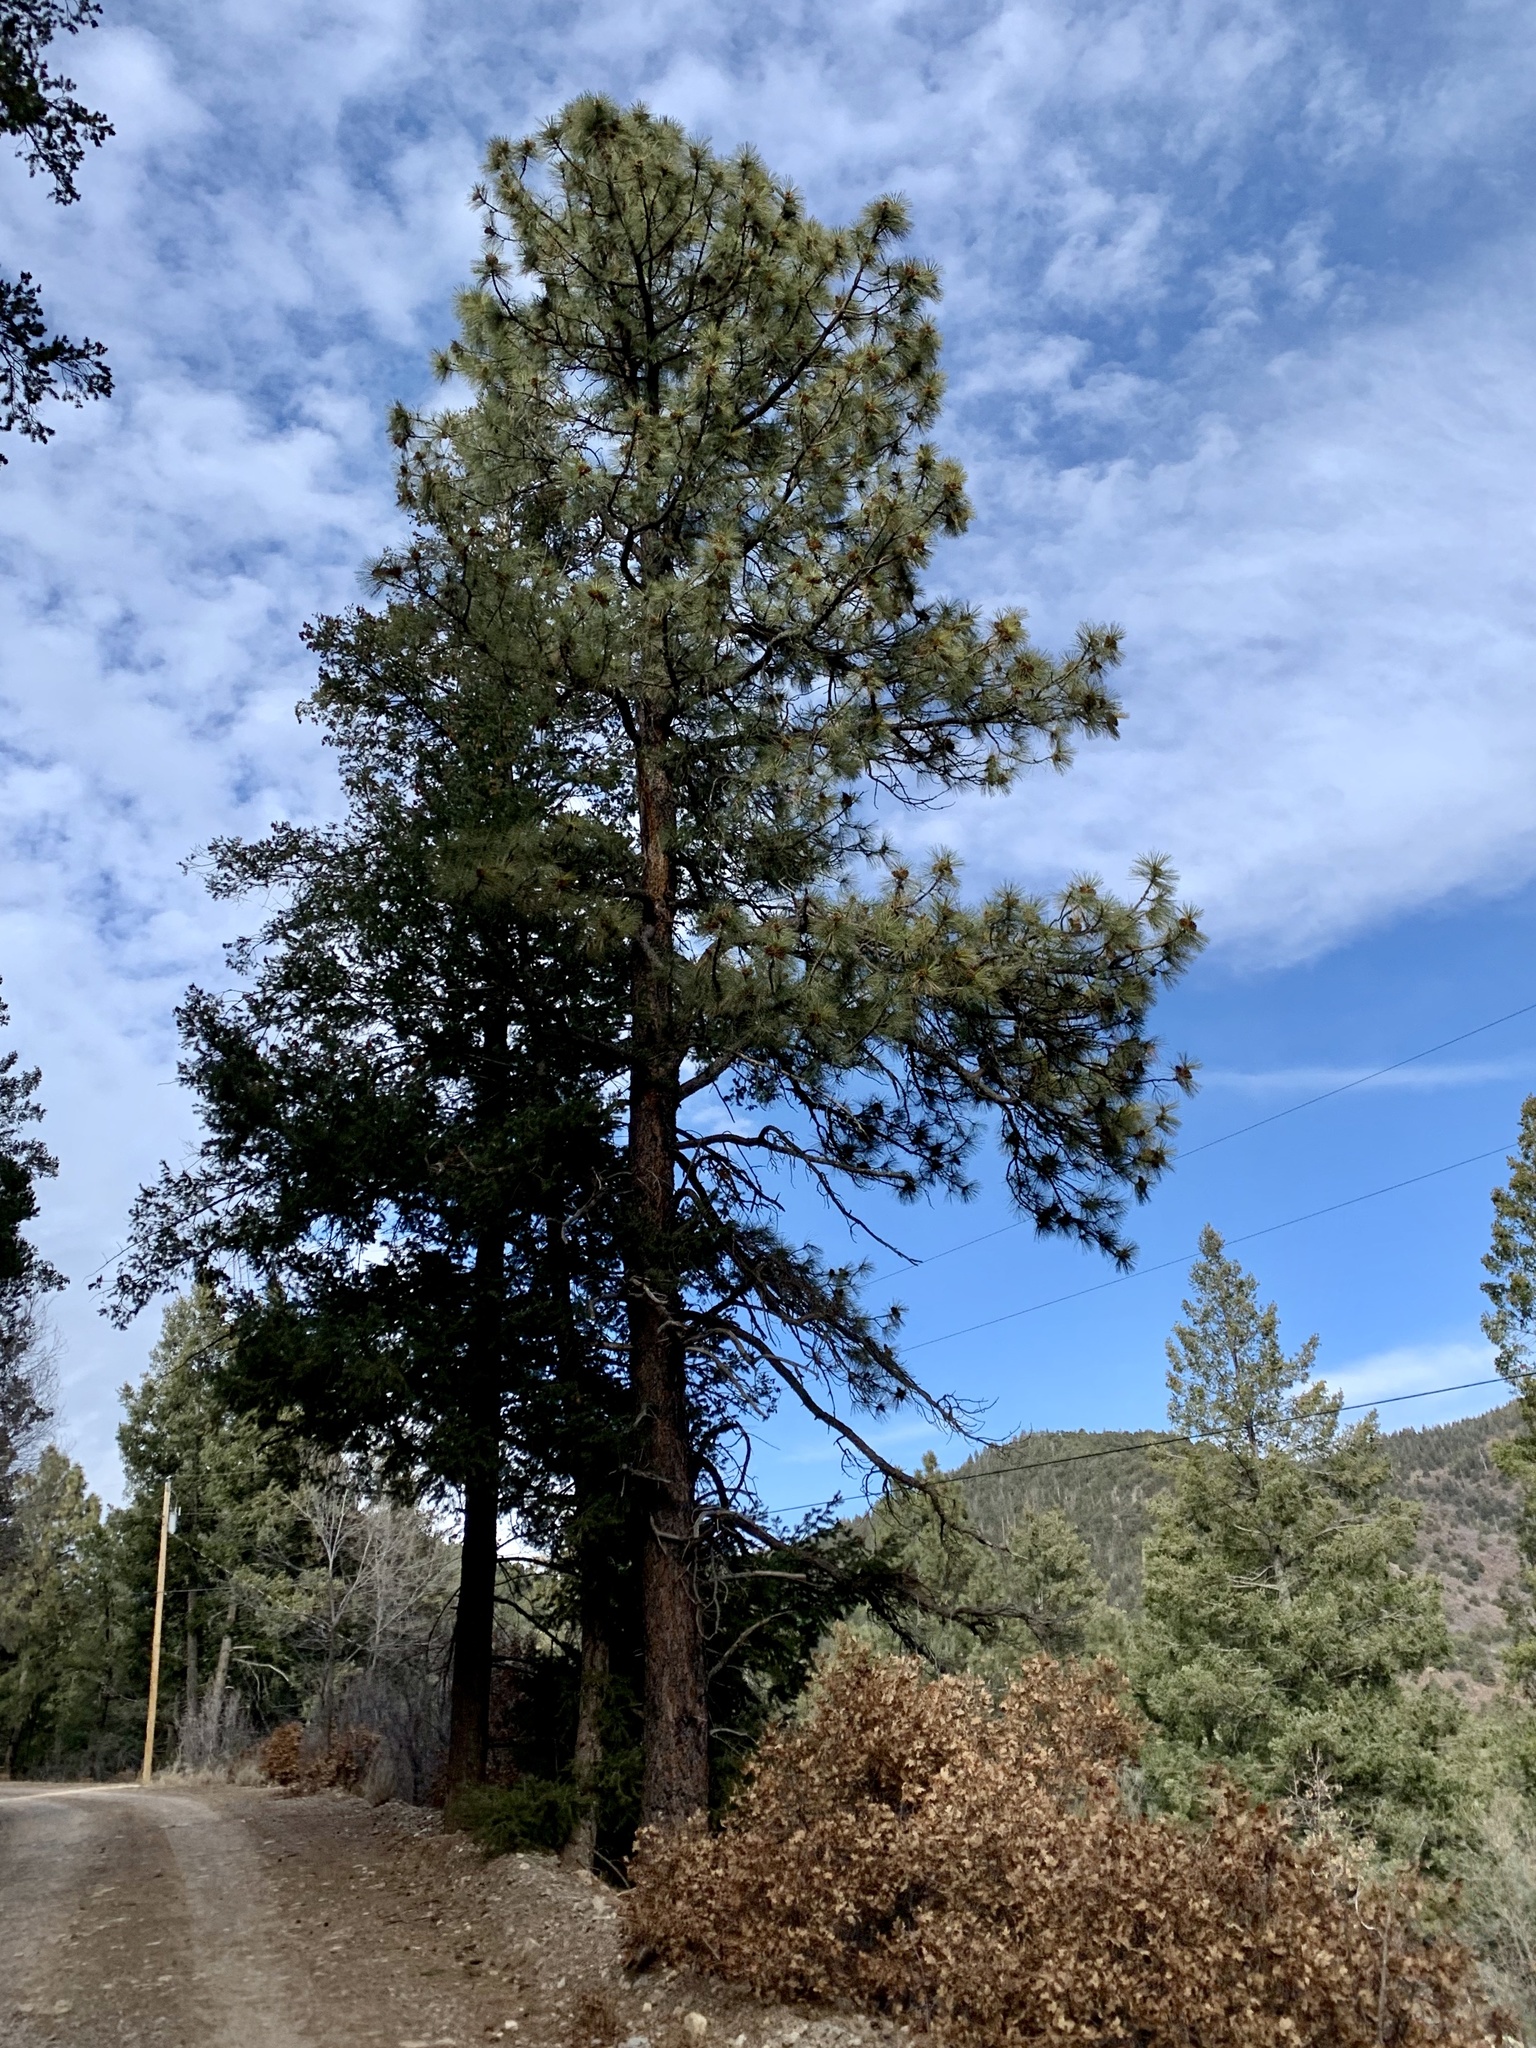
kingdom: Plantae
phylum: Tracheophyta
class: Pinopsida
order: Pinales
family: Pinaceae
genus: Pinus
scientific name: Pinus ponderosa
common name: Western yellow-pine
